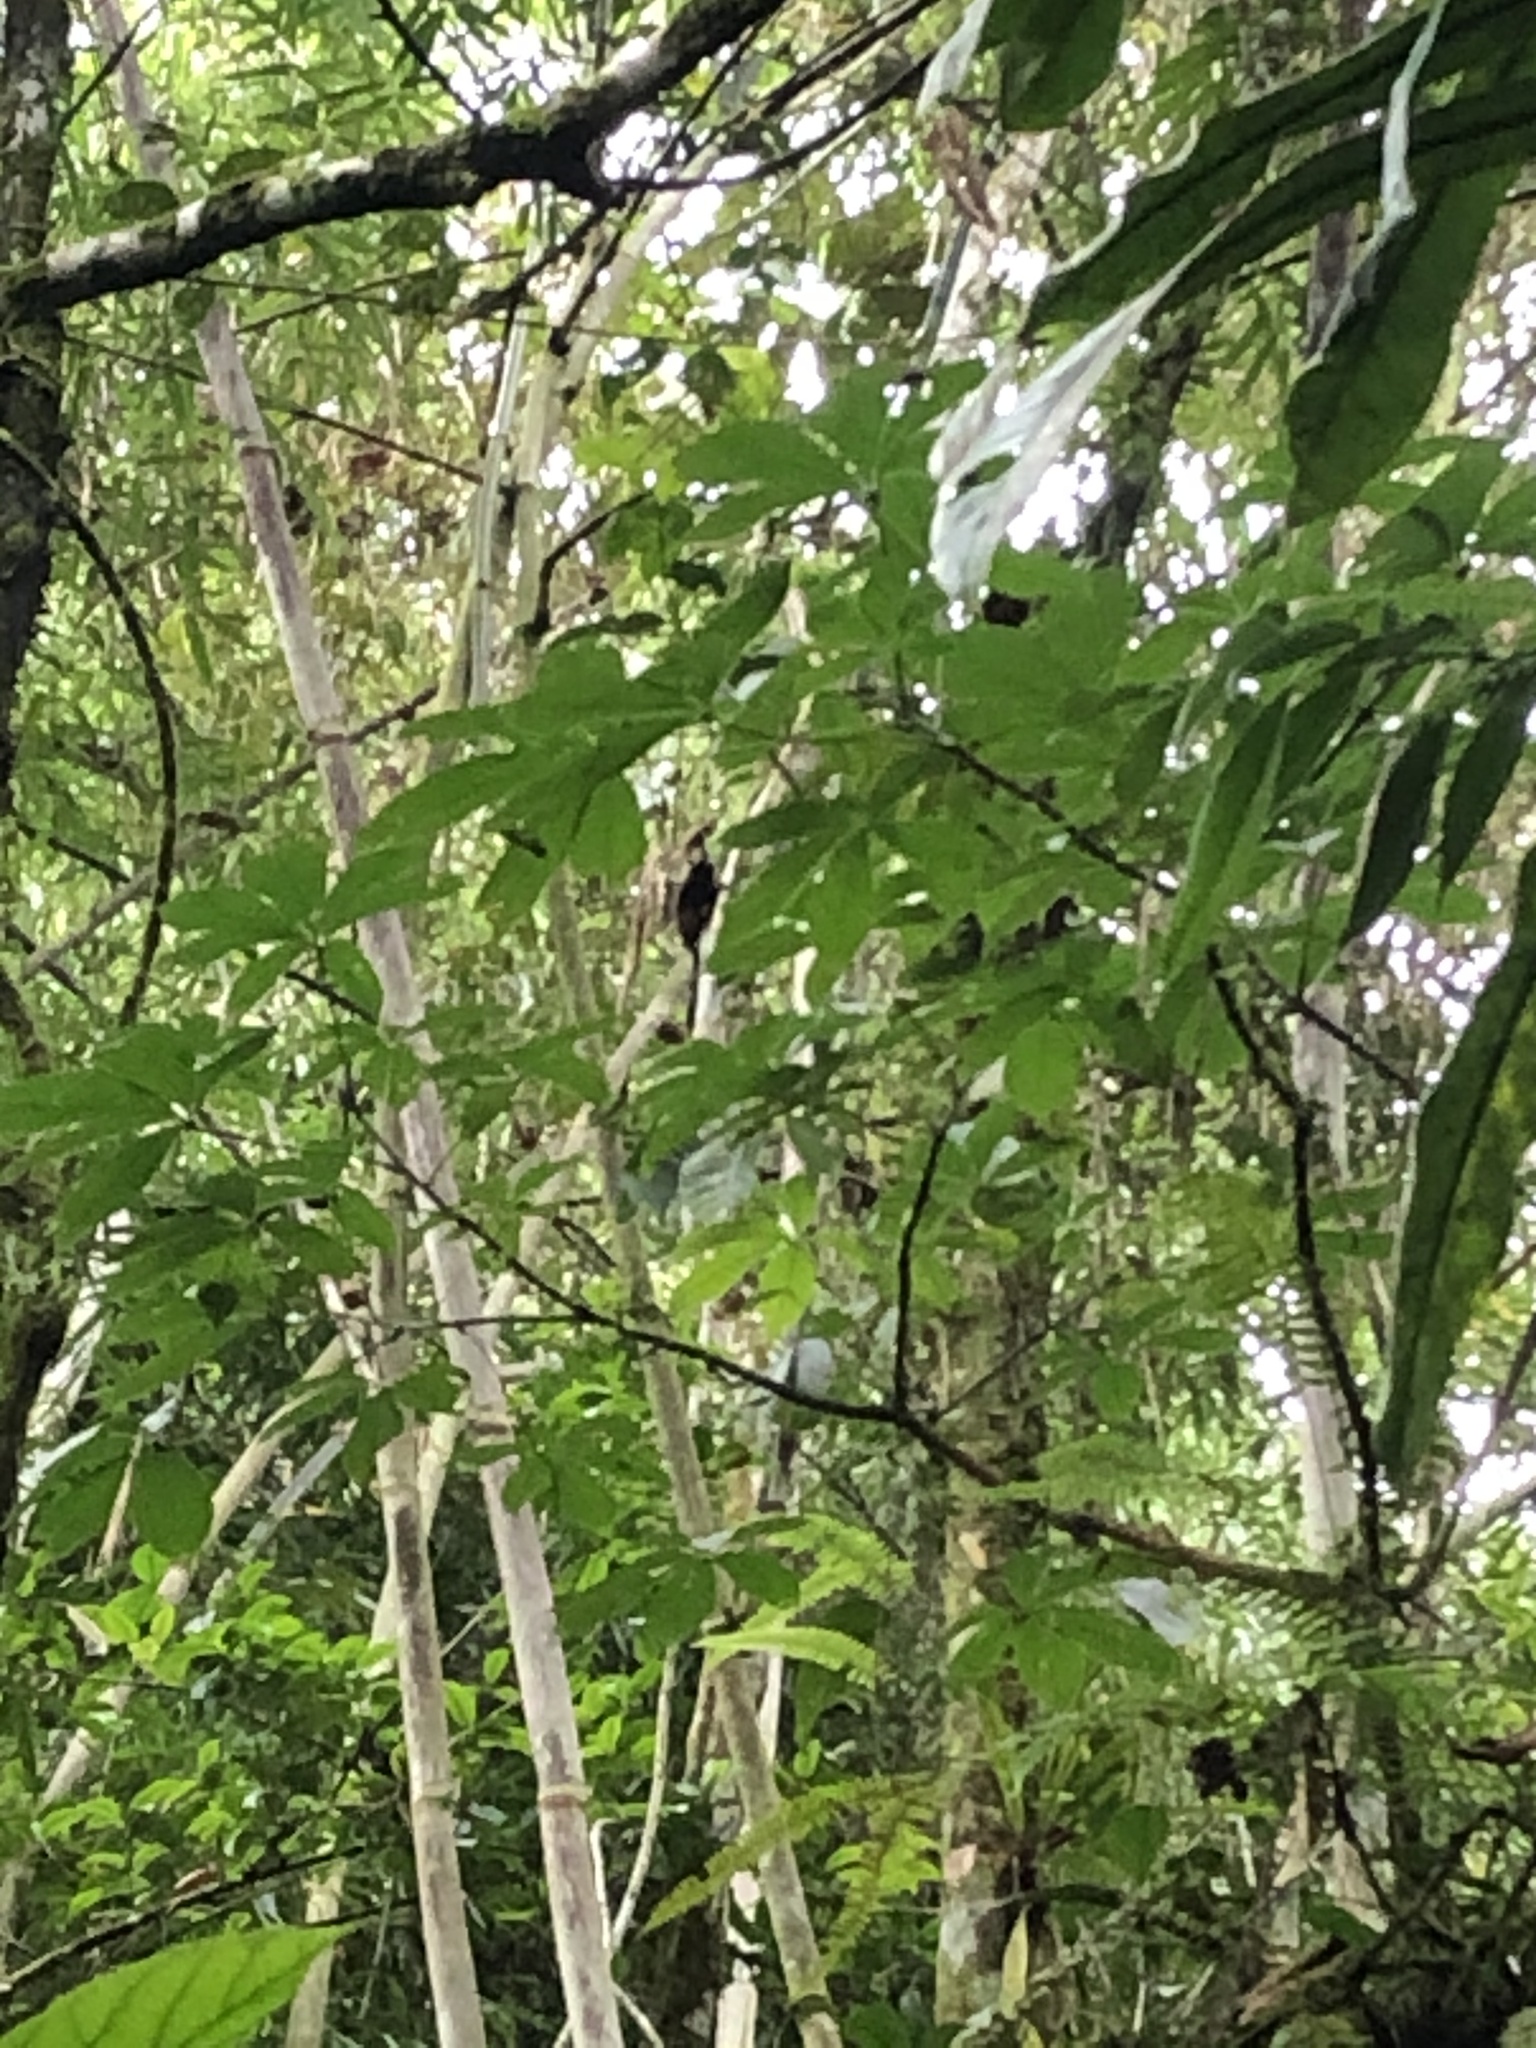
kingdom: Animalia
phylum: Chordata
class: Mammalia
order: Primates
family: Callitrichidae
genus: Leontocebus
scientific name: Leontocebus weddelli
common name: Weddell's saddle-back tamarin
